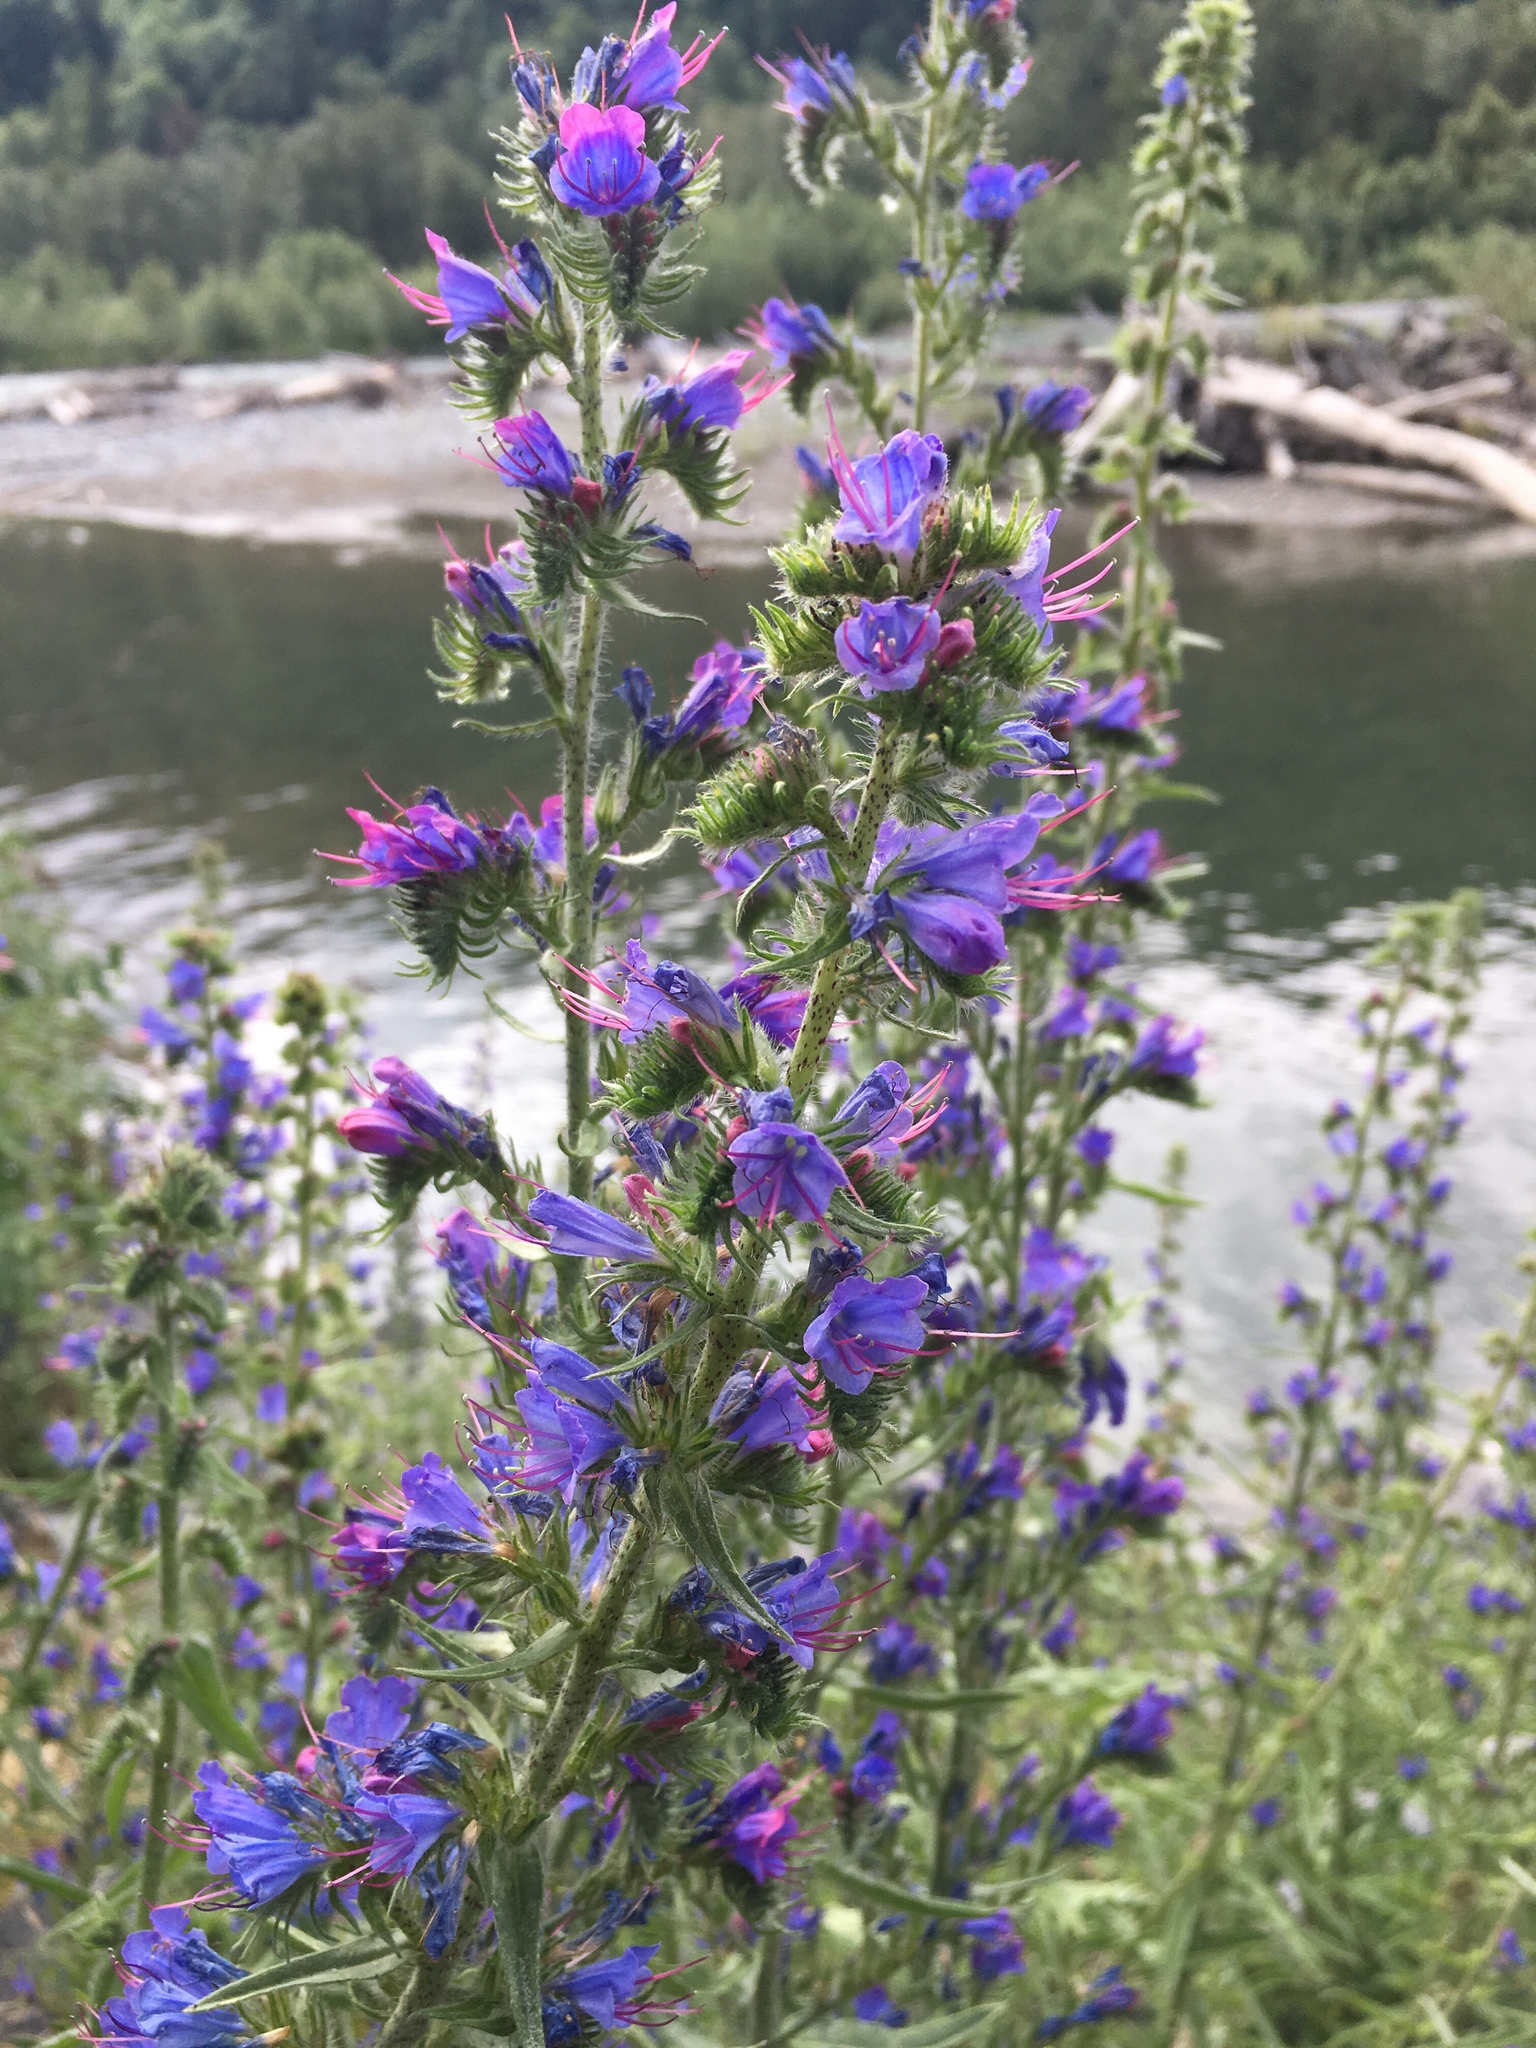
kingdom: Plantae
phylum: Tracheophyta
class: Magnoliopsida
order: Boraginales
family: Boraginaceae
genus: Echium
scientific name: Echium vulgare
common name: Common viper's bugloss
